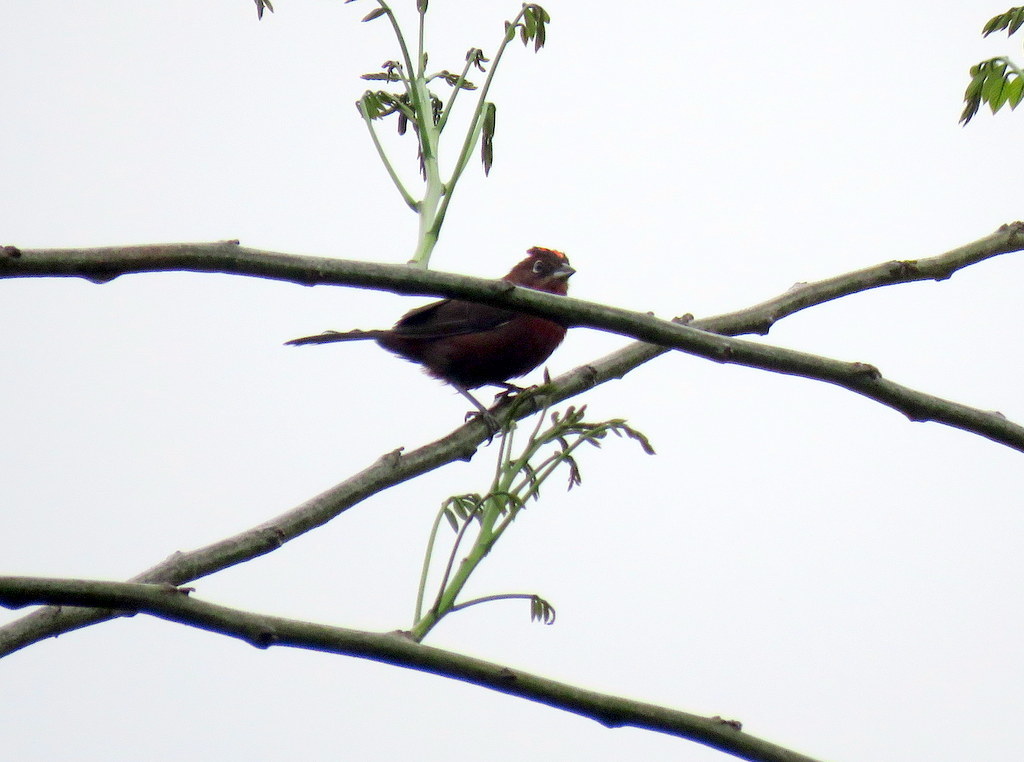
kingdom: Animalia
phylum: Chordata
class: Aves
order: Passeriformes
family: Thraupidae
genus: Coryphospingus
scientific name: Coryphospingus cucullatus
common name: Red pileated finch
